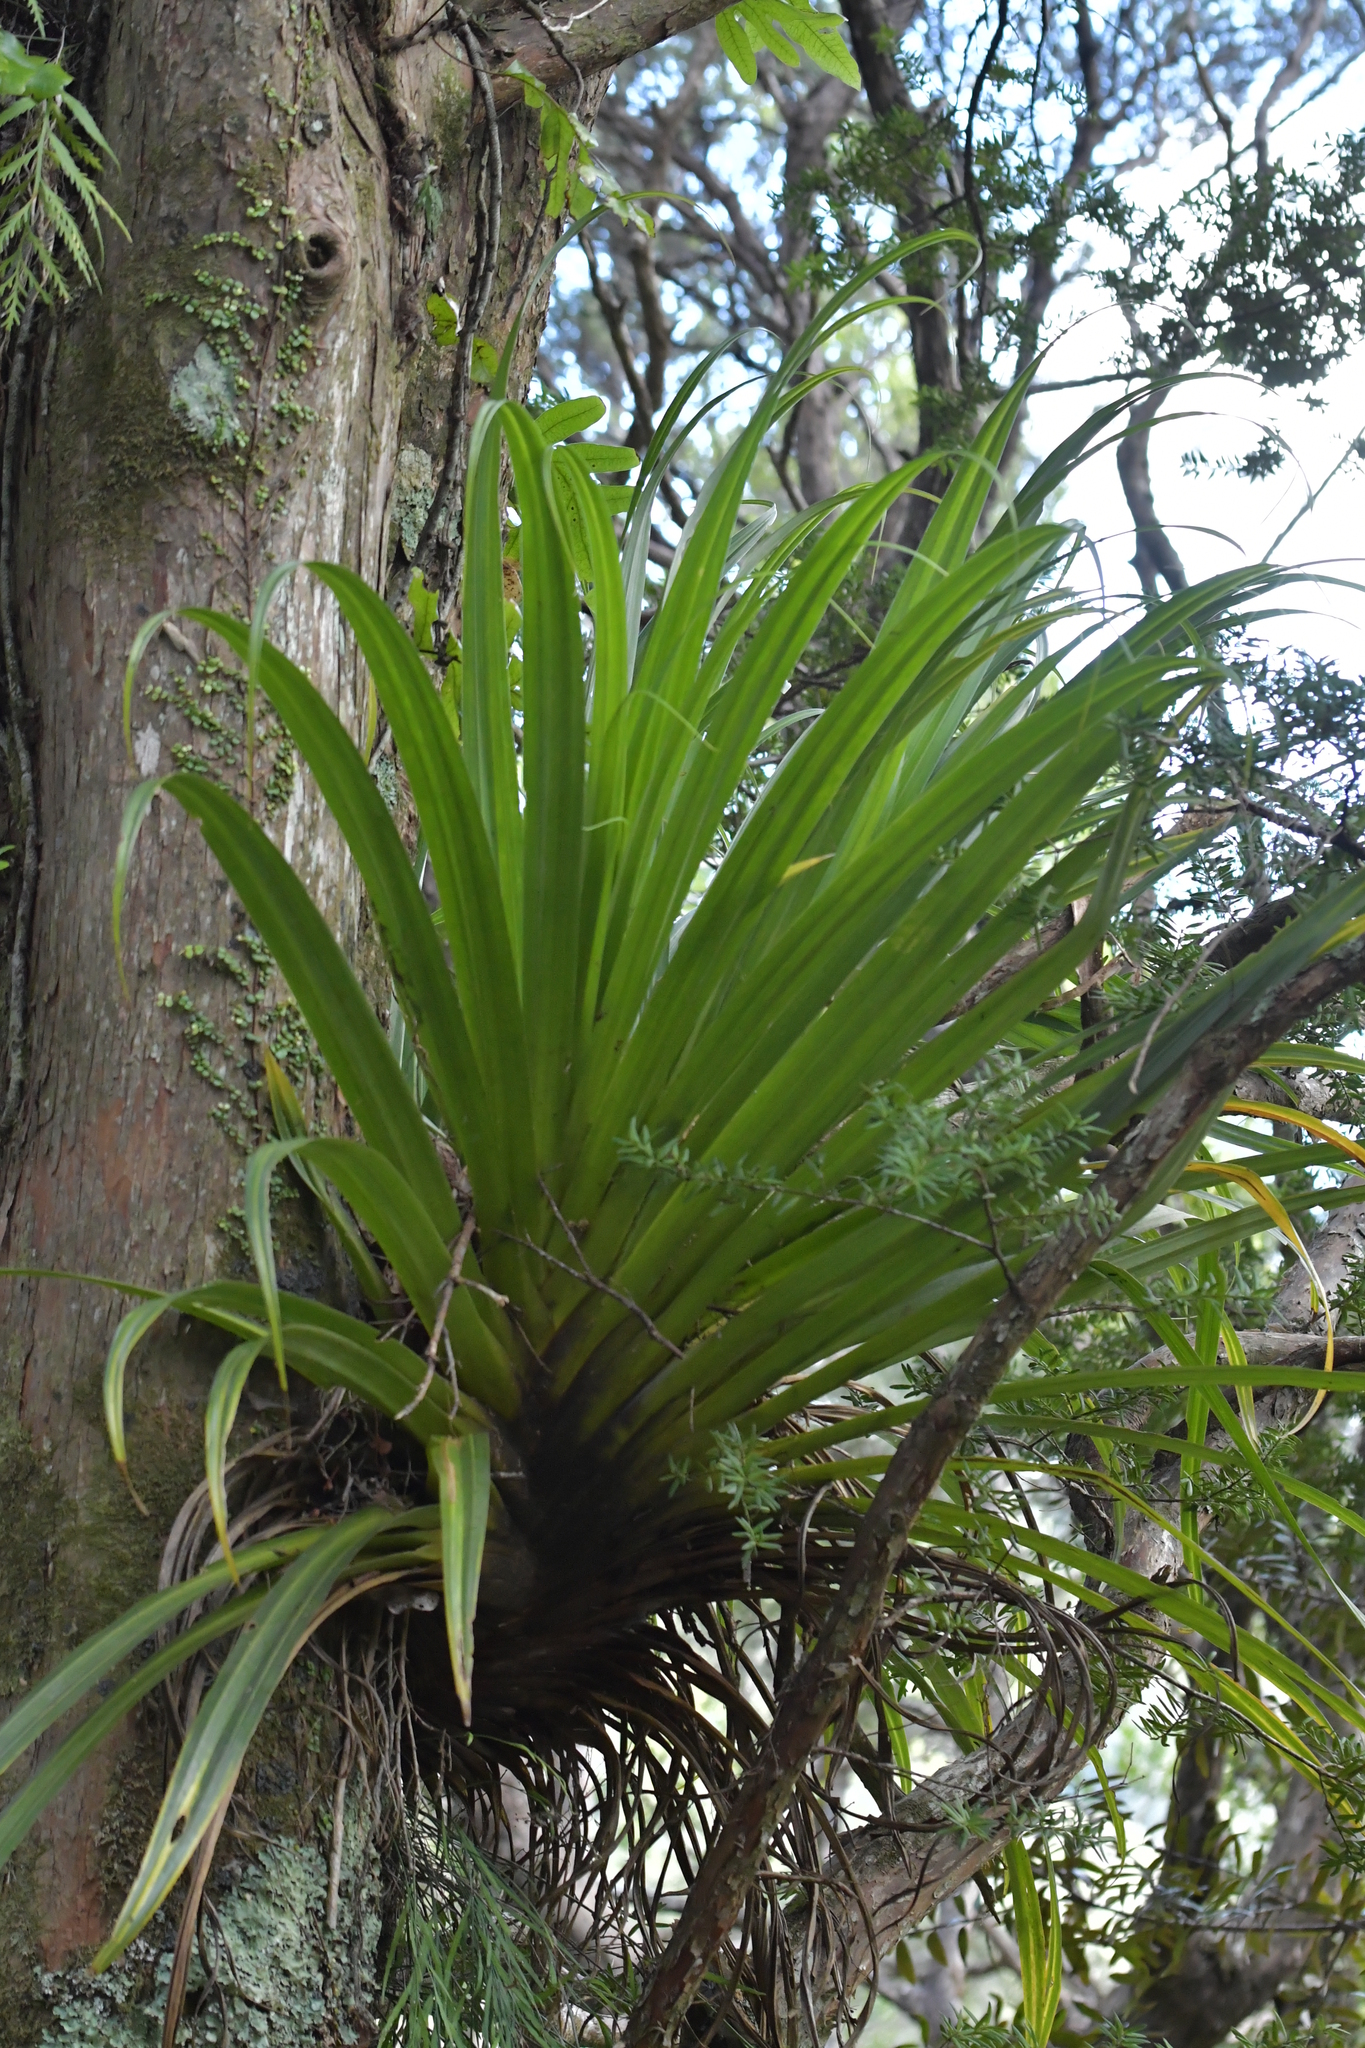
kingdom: Plantae
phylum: Tracheophyta
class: Liliopsida
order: Asparagales
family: Asteliaceae
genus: Astelia
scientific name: Astelia hastata
